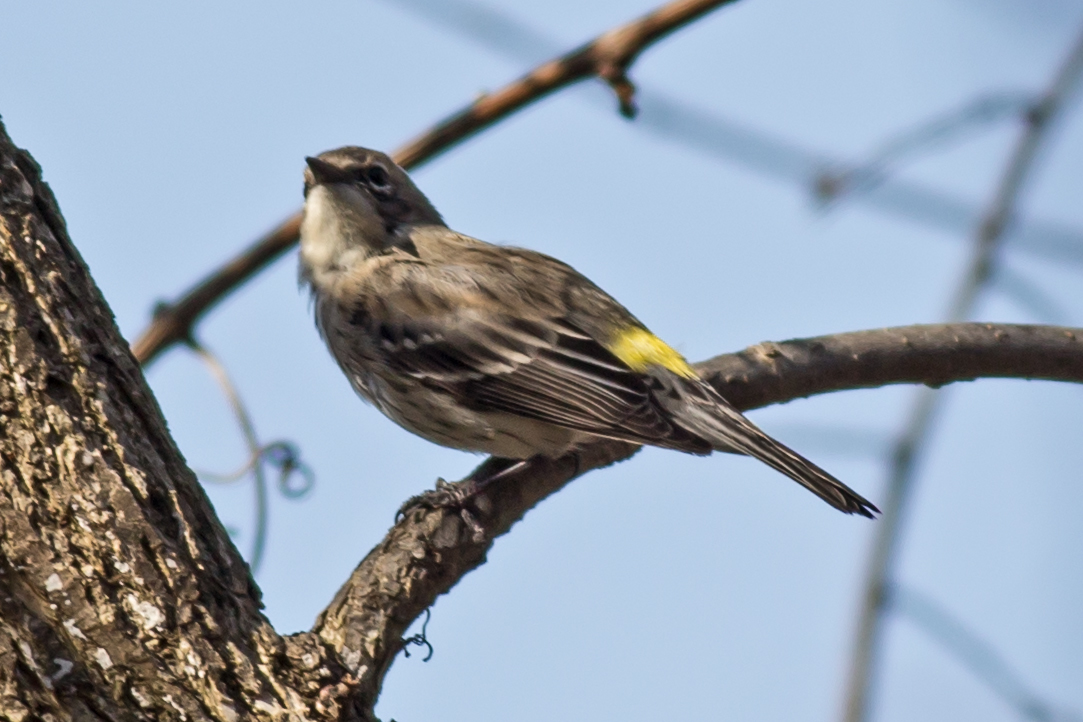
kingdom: Animalia
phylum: Chordata
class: Aves
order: Passeriformes
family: Parulidae
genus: Setophaga
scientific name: Setophaga coronata
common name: Myrtle warbler
